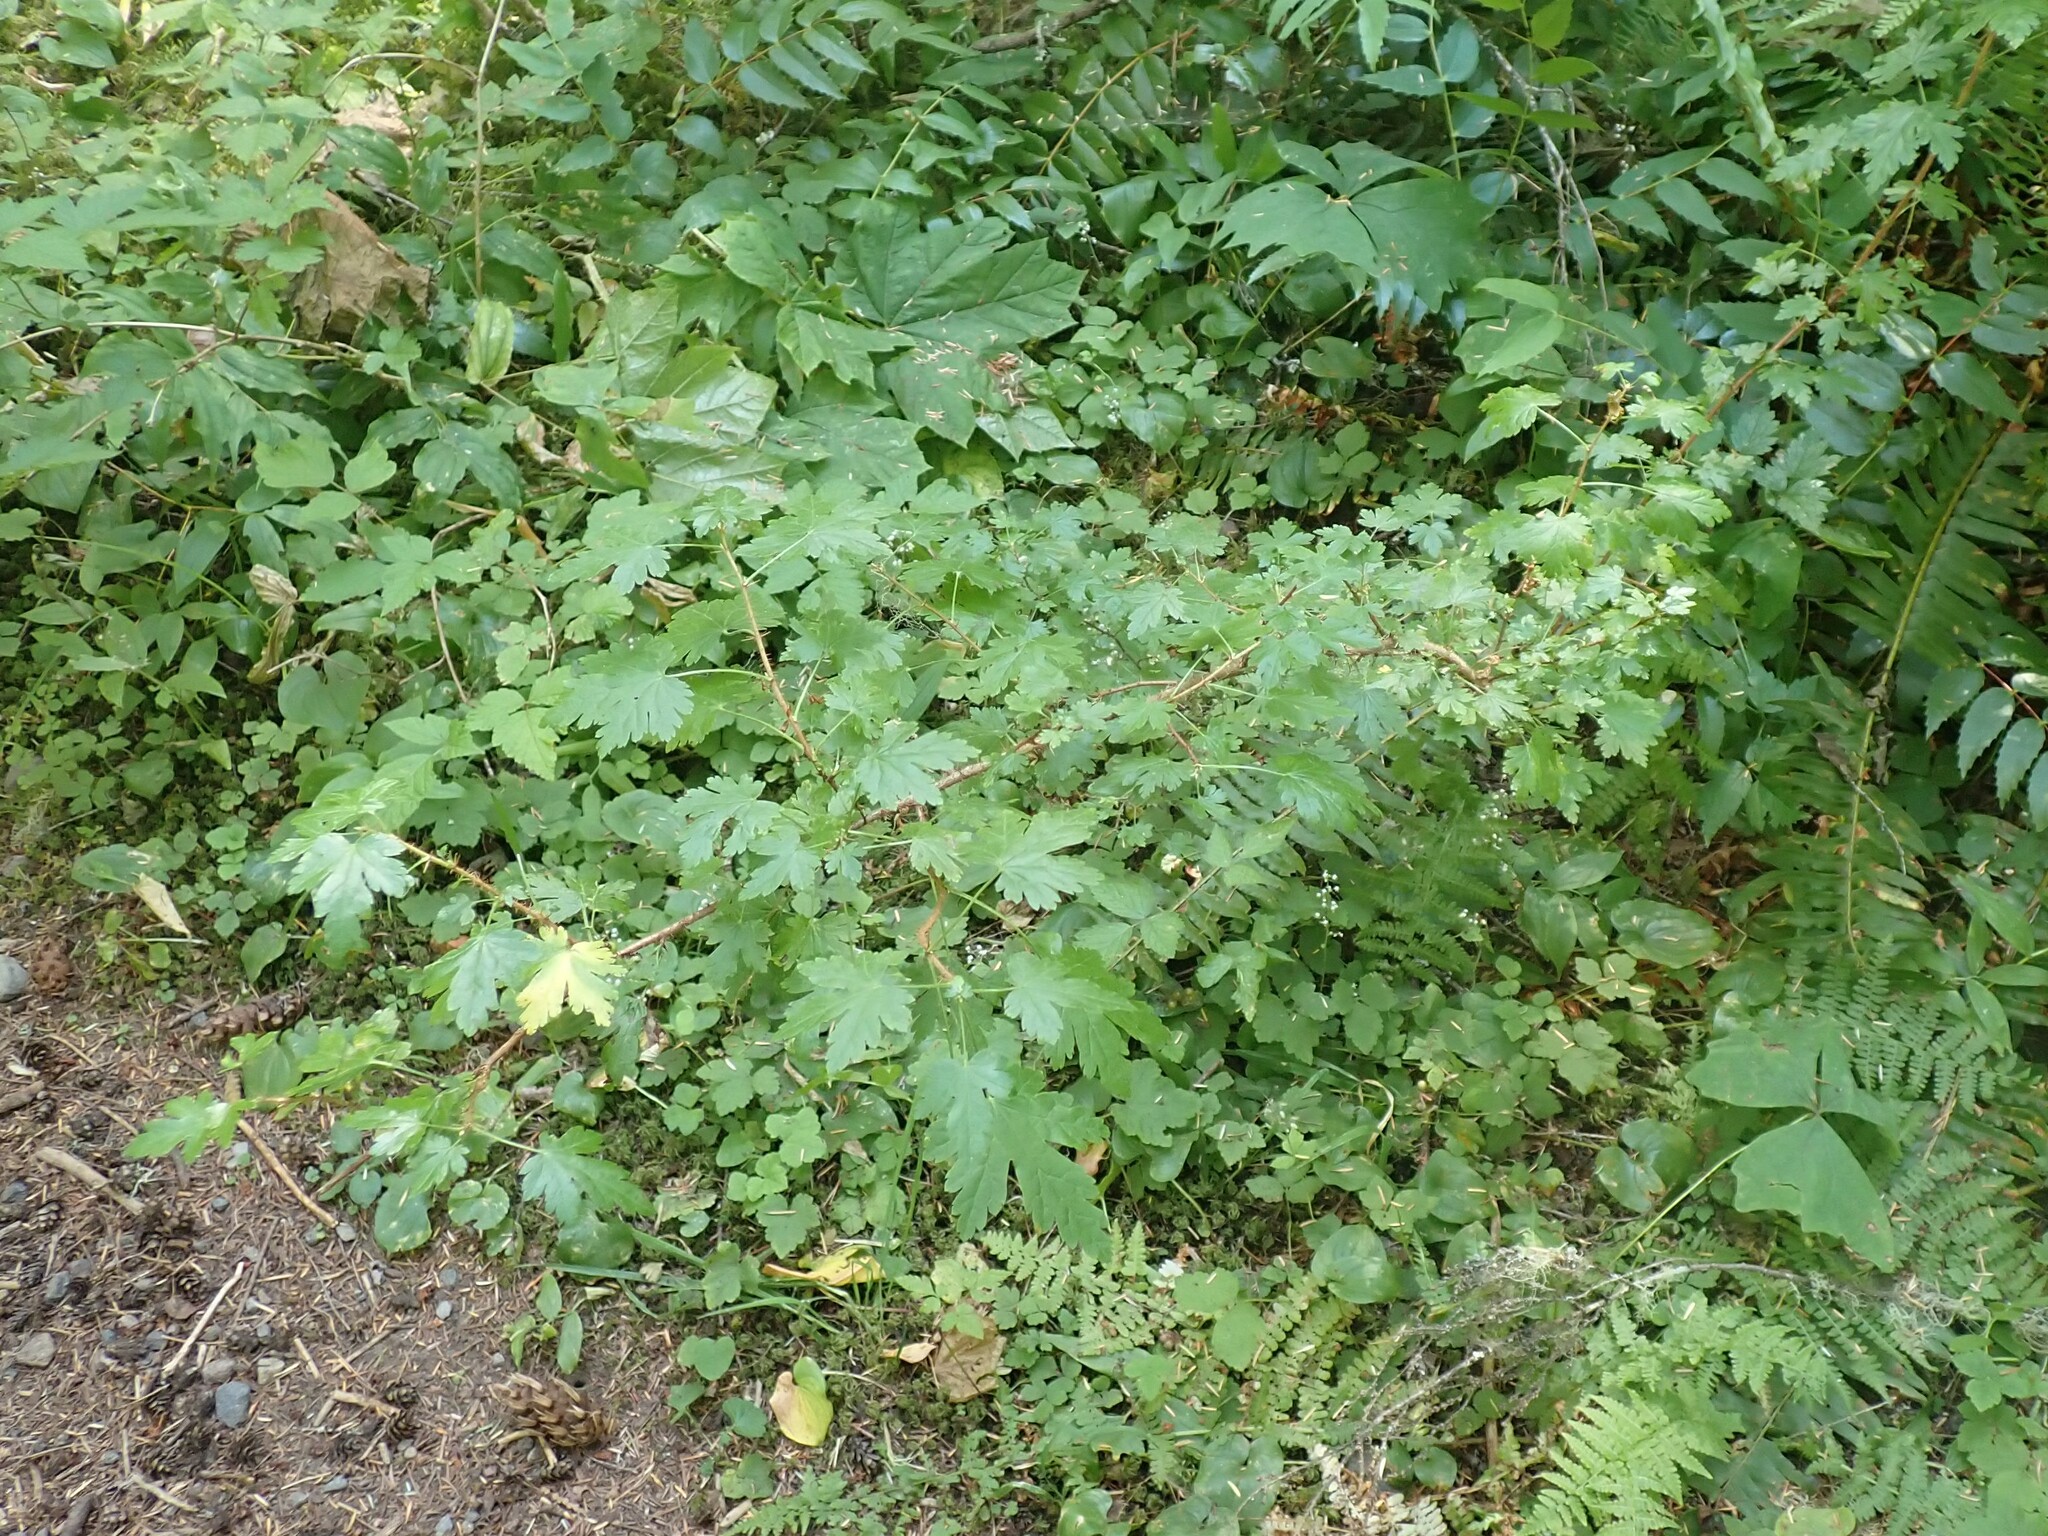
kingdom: Plantae
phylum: Tracheophyta
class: Magnoliopsida
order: Saxifragales
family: Grossulariaceae
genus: Ribes
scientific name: Ribes lacustre
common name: Black gooseberry
